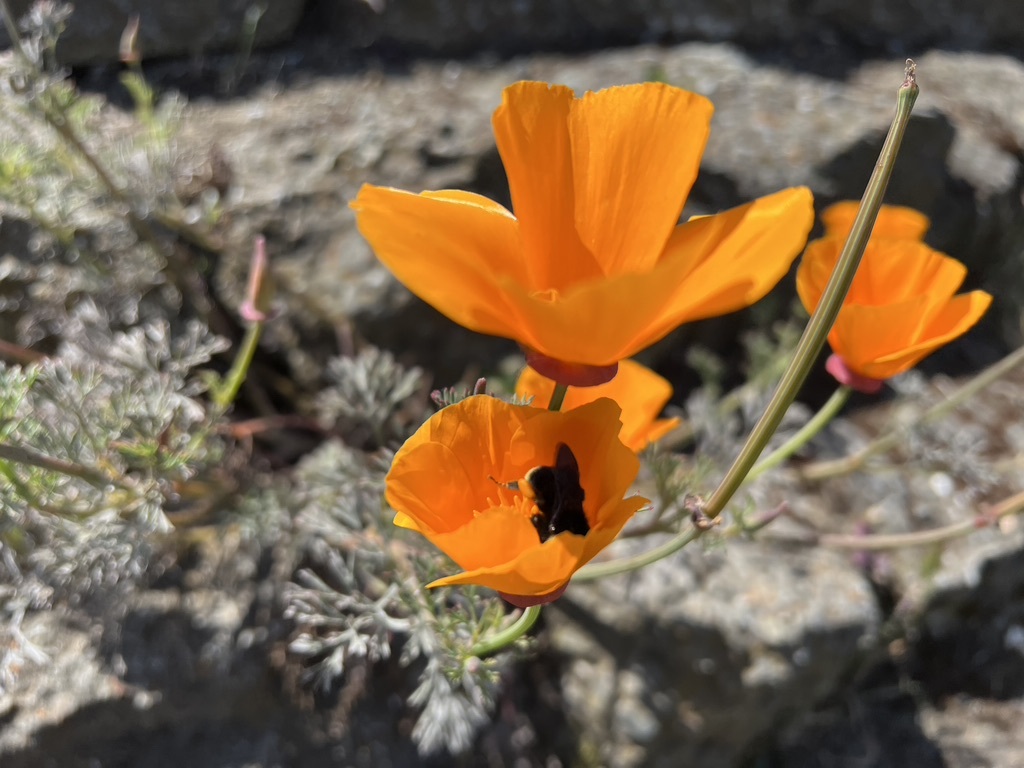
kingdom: Plantae
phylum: Tracheophyta
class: Magnoliopsida
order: Ranunculales
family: Papaveraceae
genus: Eschscholzia
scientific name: Eschscholzia californica
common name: California poppy
